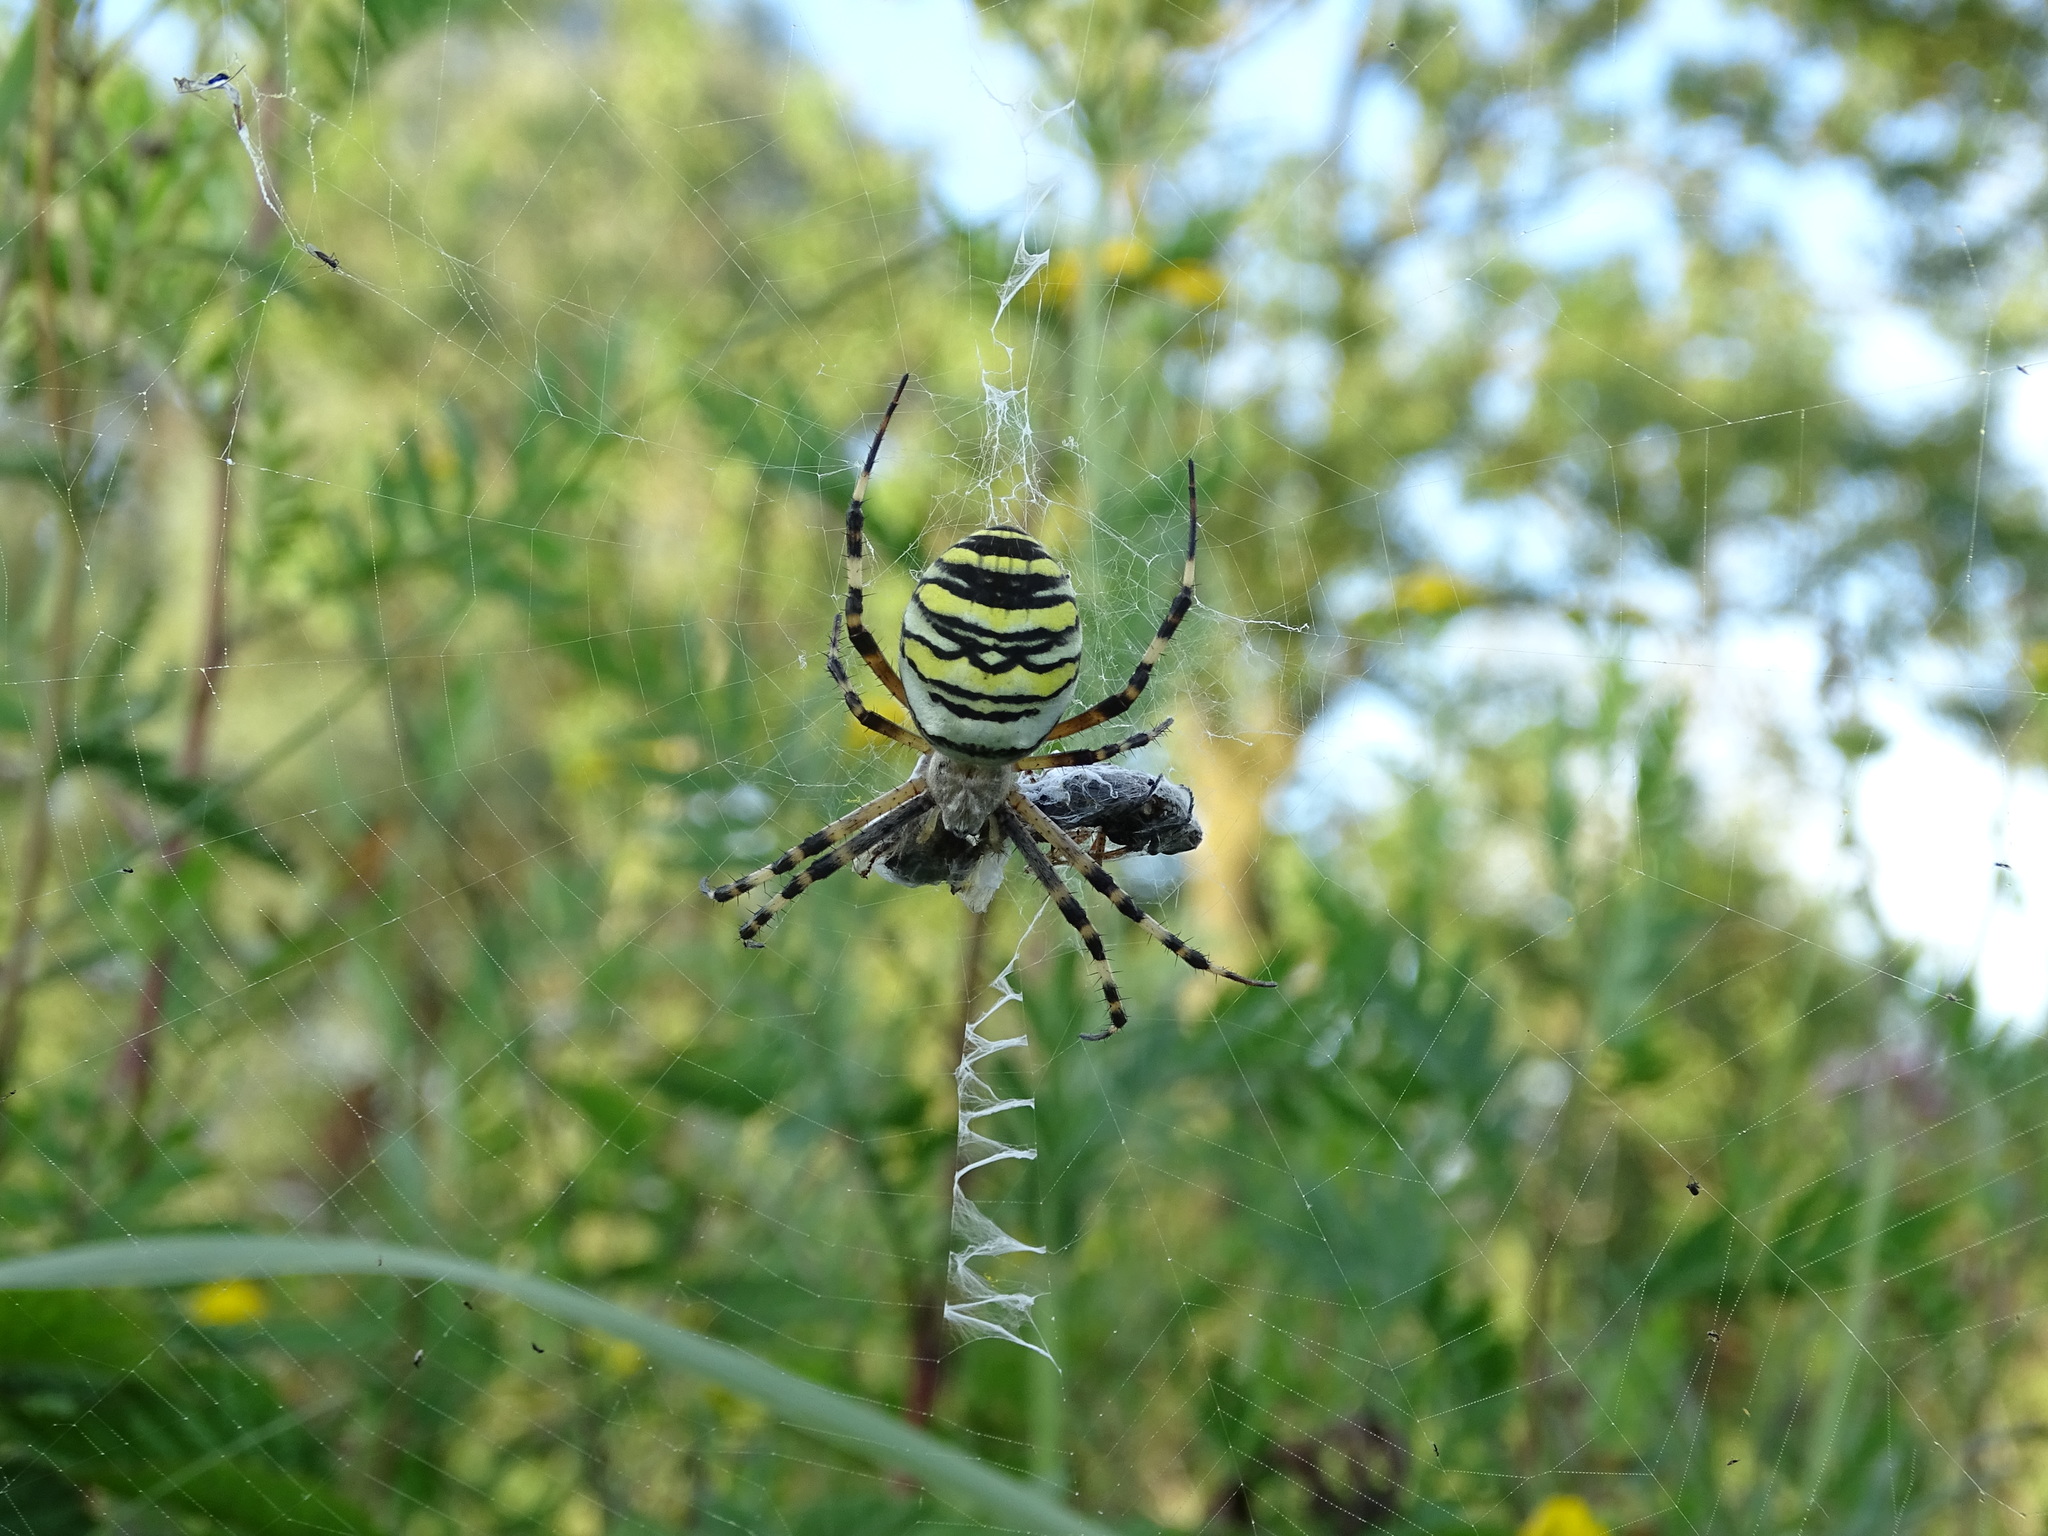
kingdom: Animalia
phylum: Arthropoda
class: Arachnida
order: Araneae
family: Araneidae
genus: Argiope
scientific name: Argiope bruennichi
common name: Wasp spider
